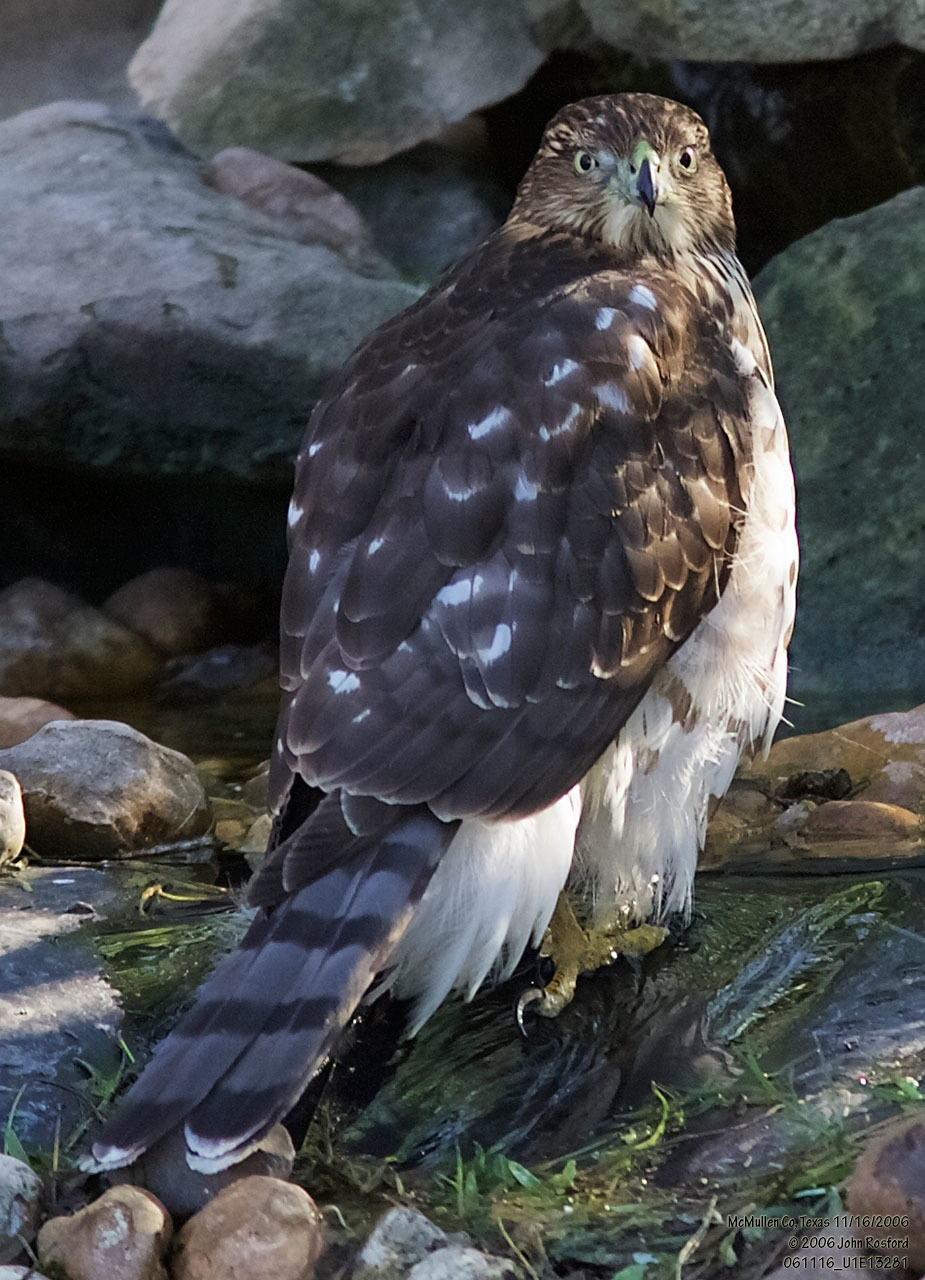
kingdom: Animalia
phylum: Chordata
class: Aves
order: Accipitriformes
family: Accipitridae
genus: Accipiter
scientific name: Accipiter cooperii
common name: Cooper's hawk
